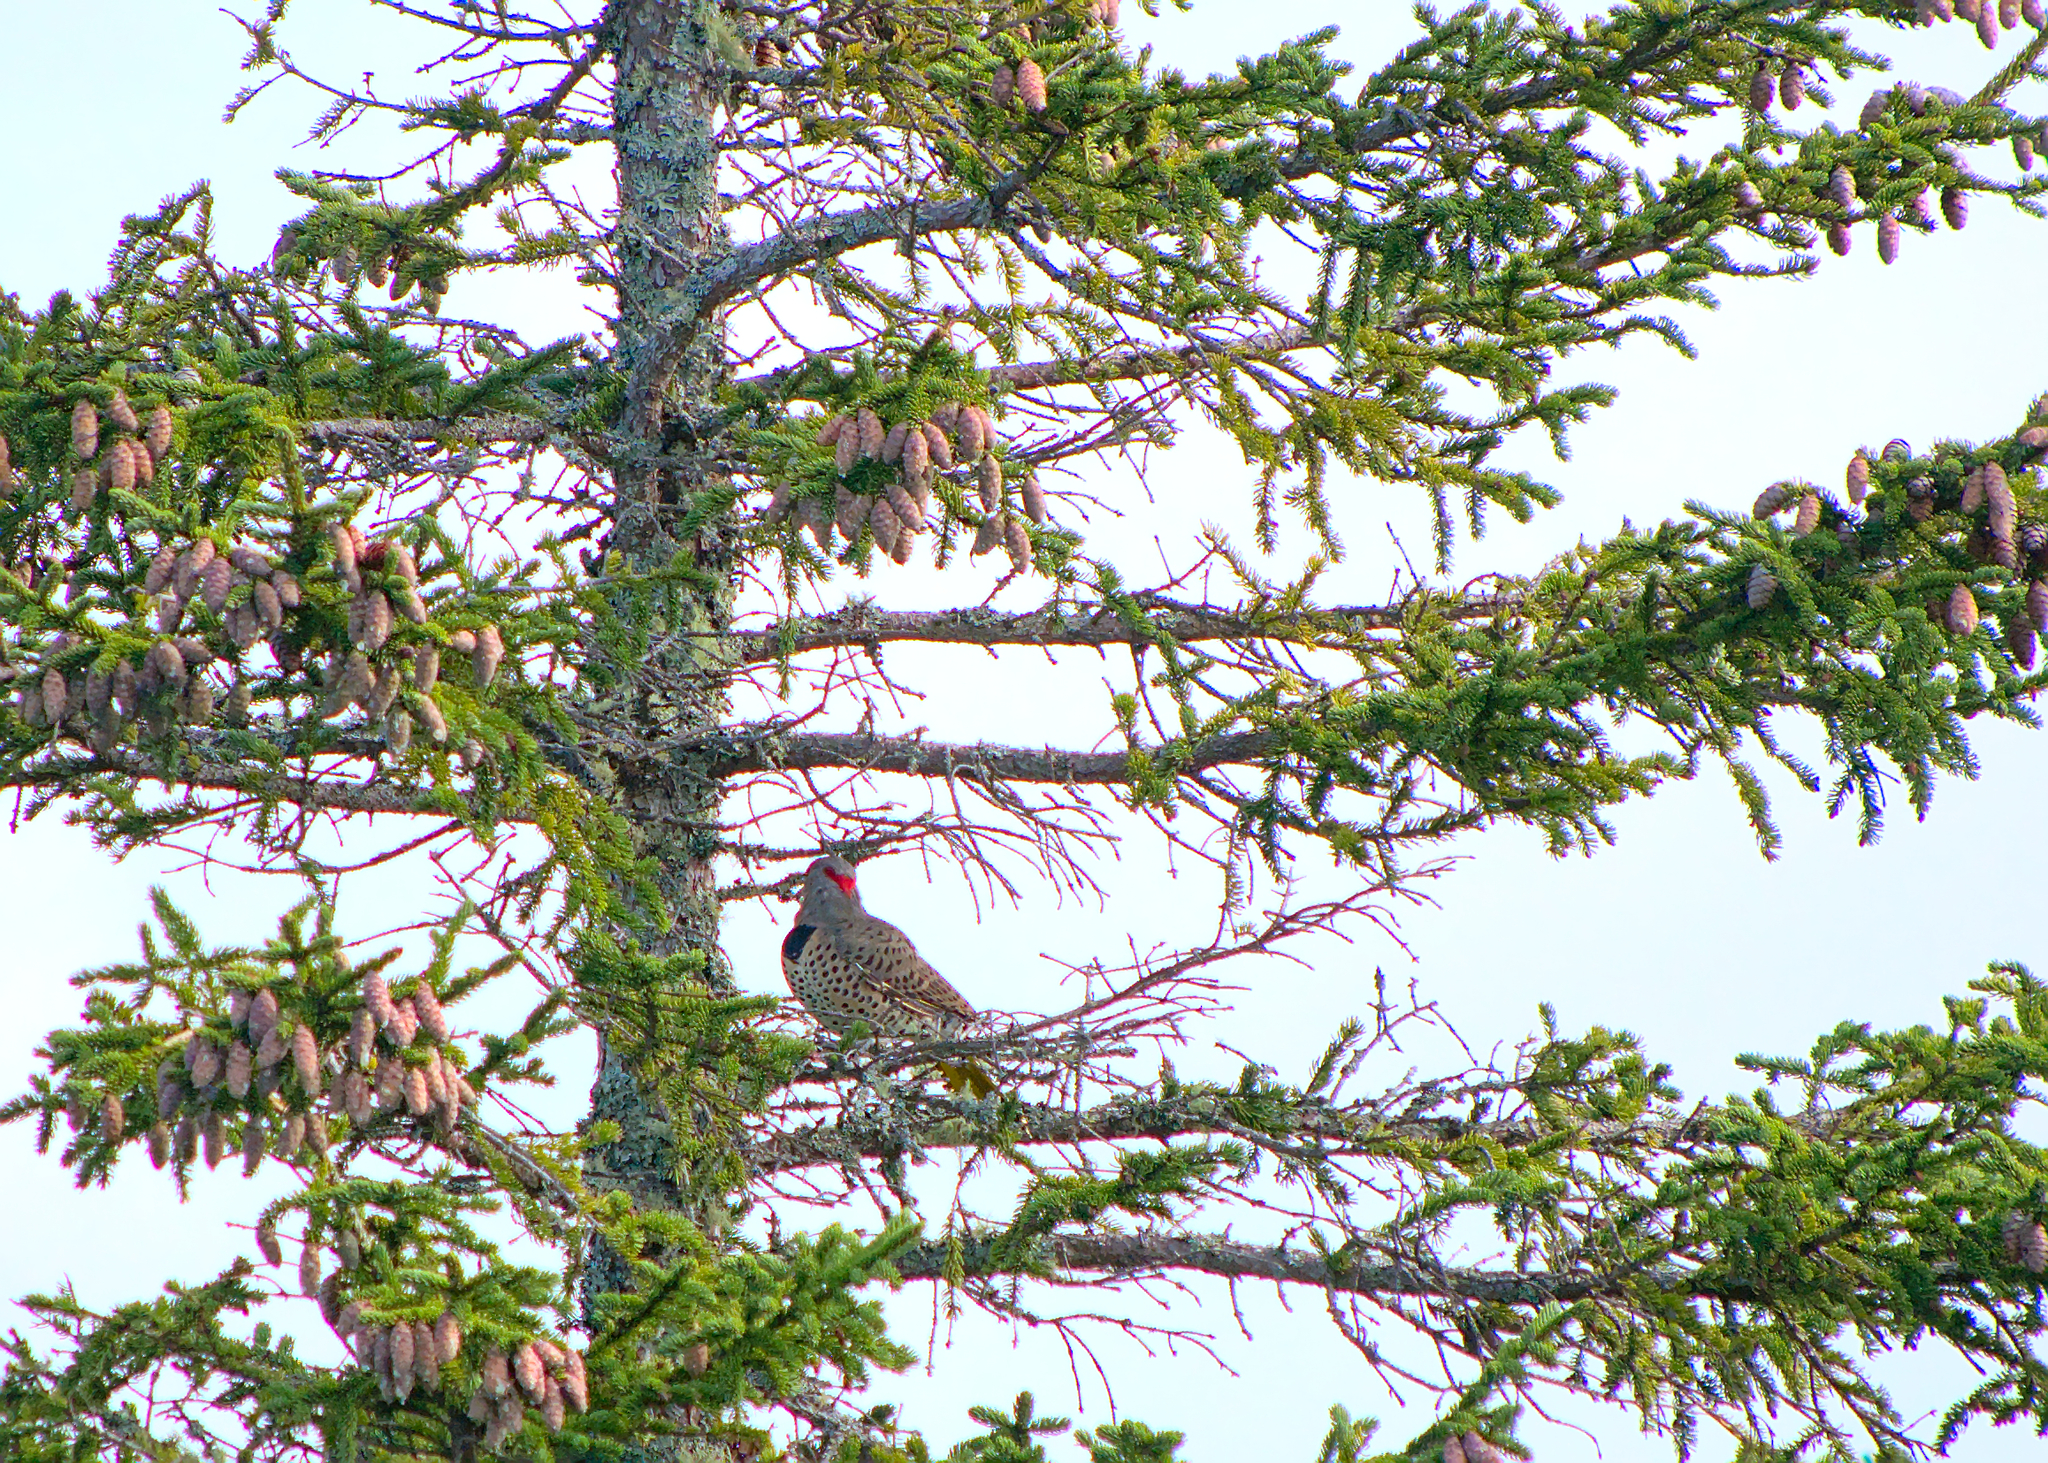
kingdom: Animalia
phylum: Chordata
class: Aves
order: Piciformes
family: Picidae
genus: Colaptes
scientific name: Colaptes auratus
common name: Northern flicker
